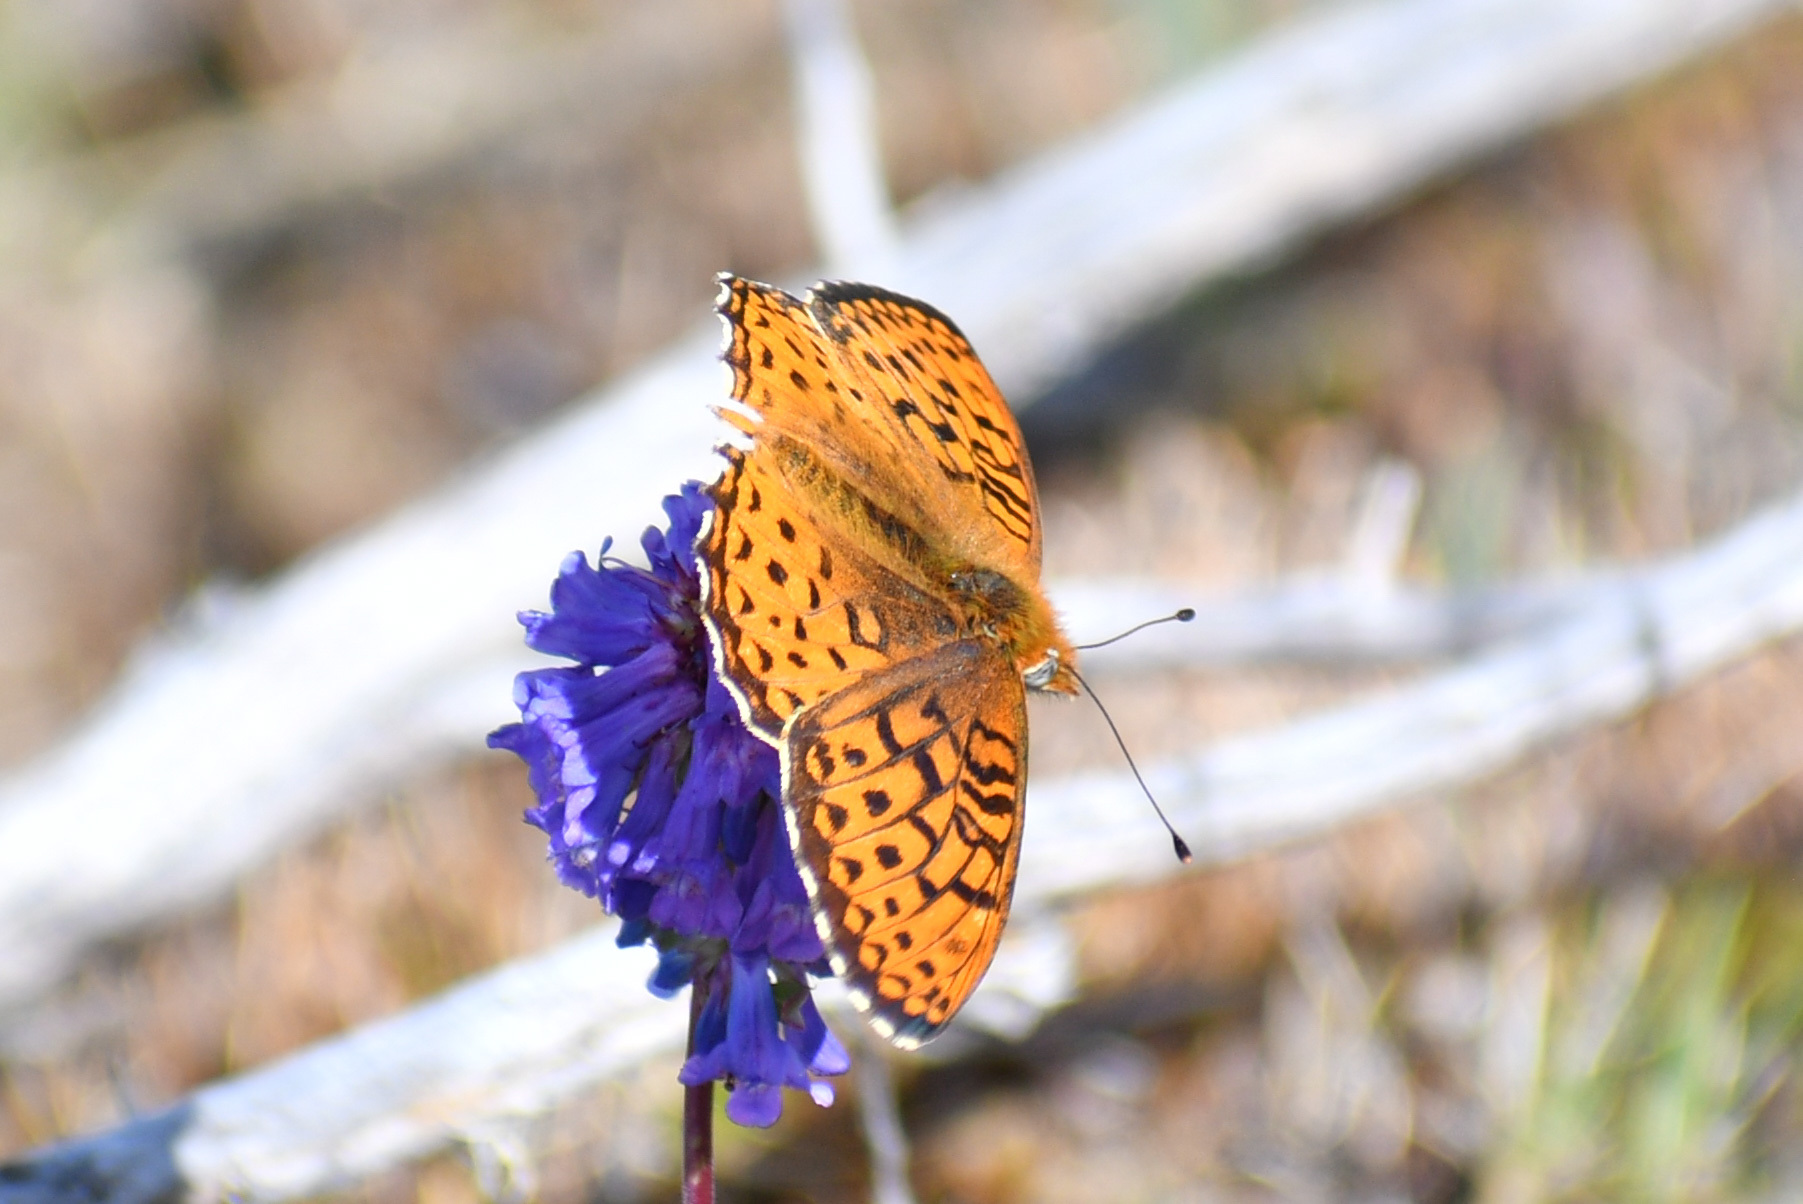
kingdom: Animalia
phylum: Arthropoda
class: Insecta
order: Lepidoptera
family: Nymphalidae
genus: Speyeria
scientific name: Speyeria atlantis
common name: Atlantis fritillary
